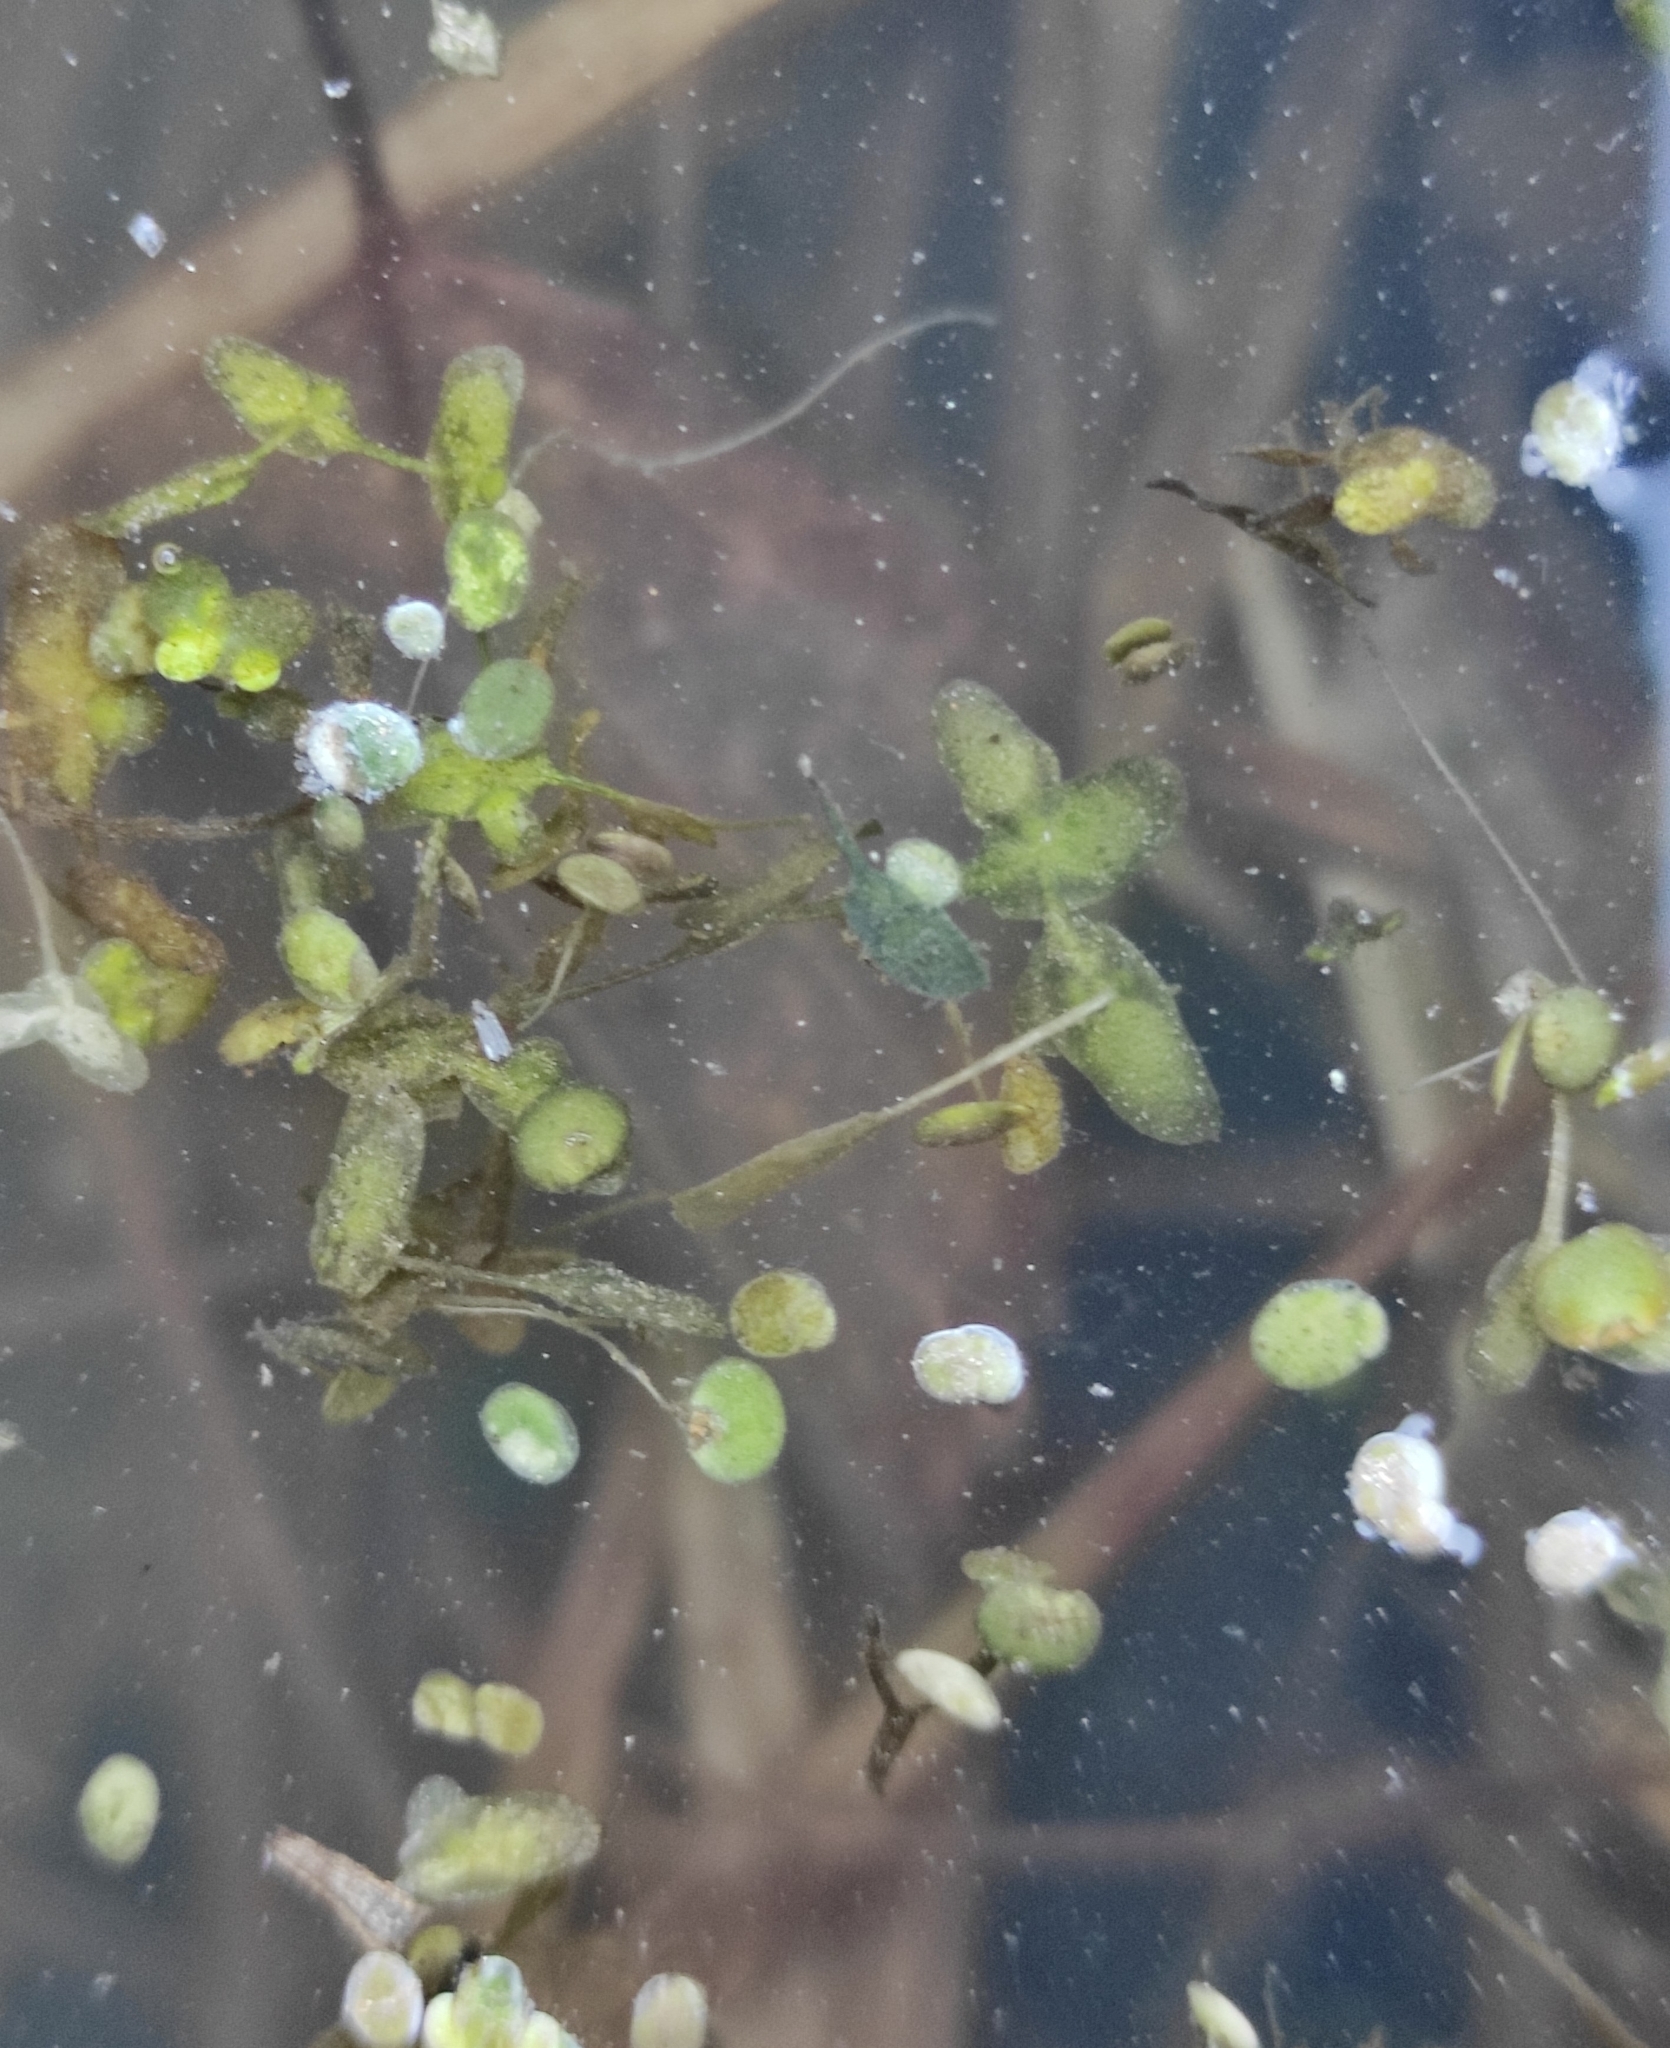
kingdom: Plantae
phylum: Tracheophyta
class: Liliopsida
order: Alismatales
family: Araceae
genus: Lemna
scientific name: Lemna trisulca
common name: Ivy-leaved duckweed
